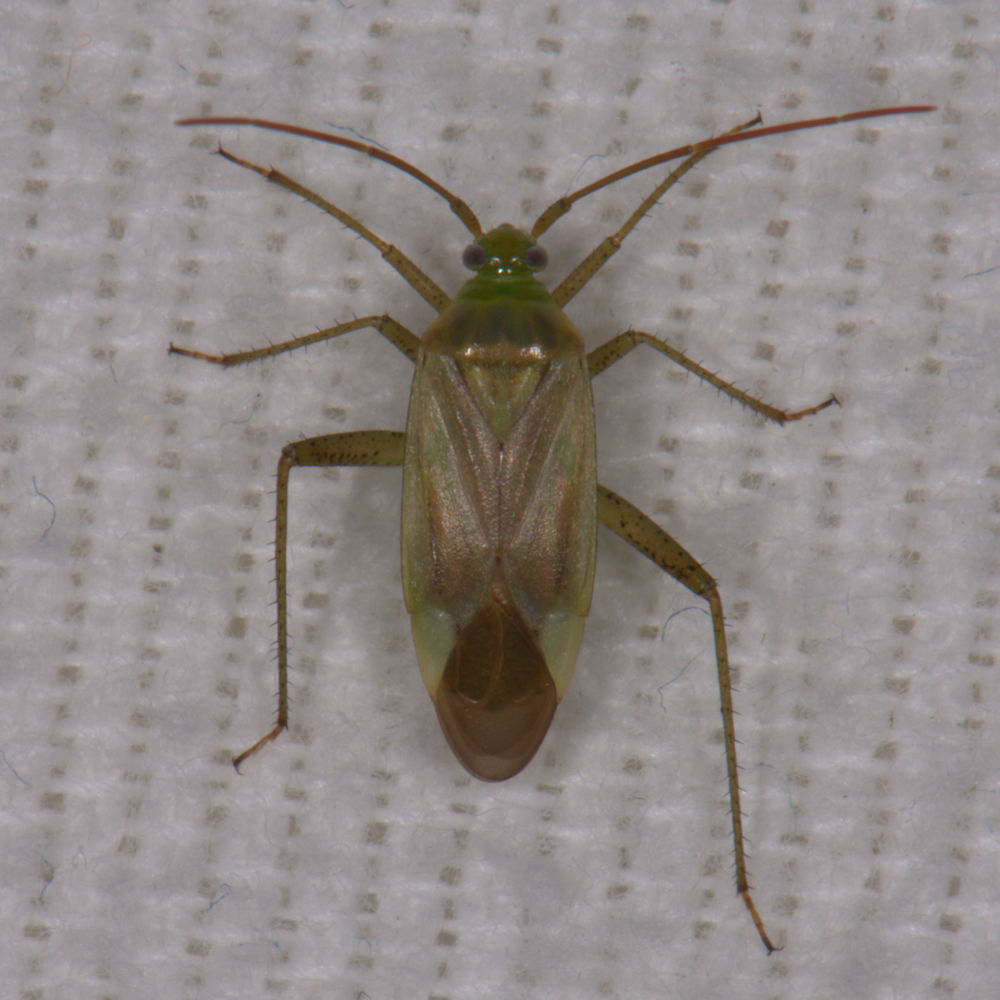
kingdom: Animalia
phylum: Arthropoda
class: Insecta
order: Hemiptera
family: Miridae
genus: Adelphocoris
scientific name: Adelphocoris lineolatus
